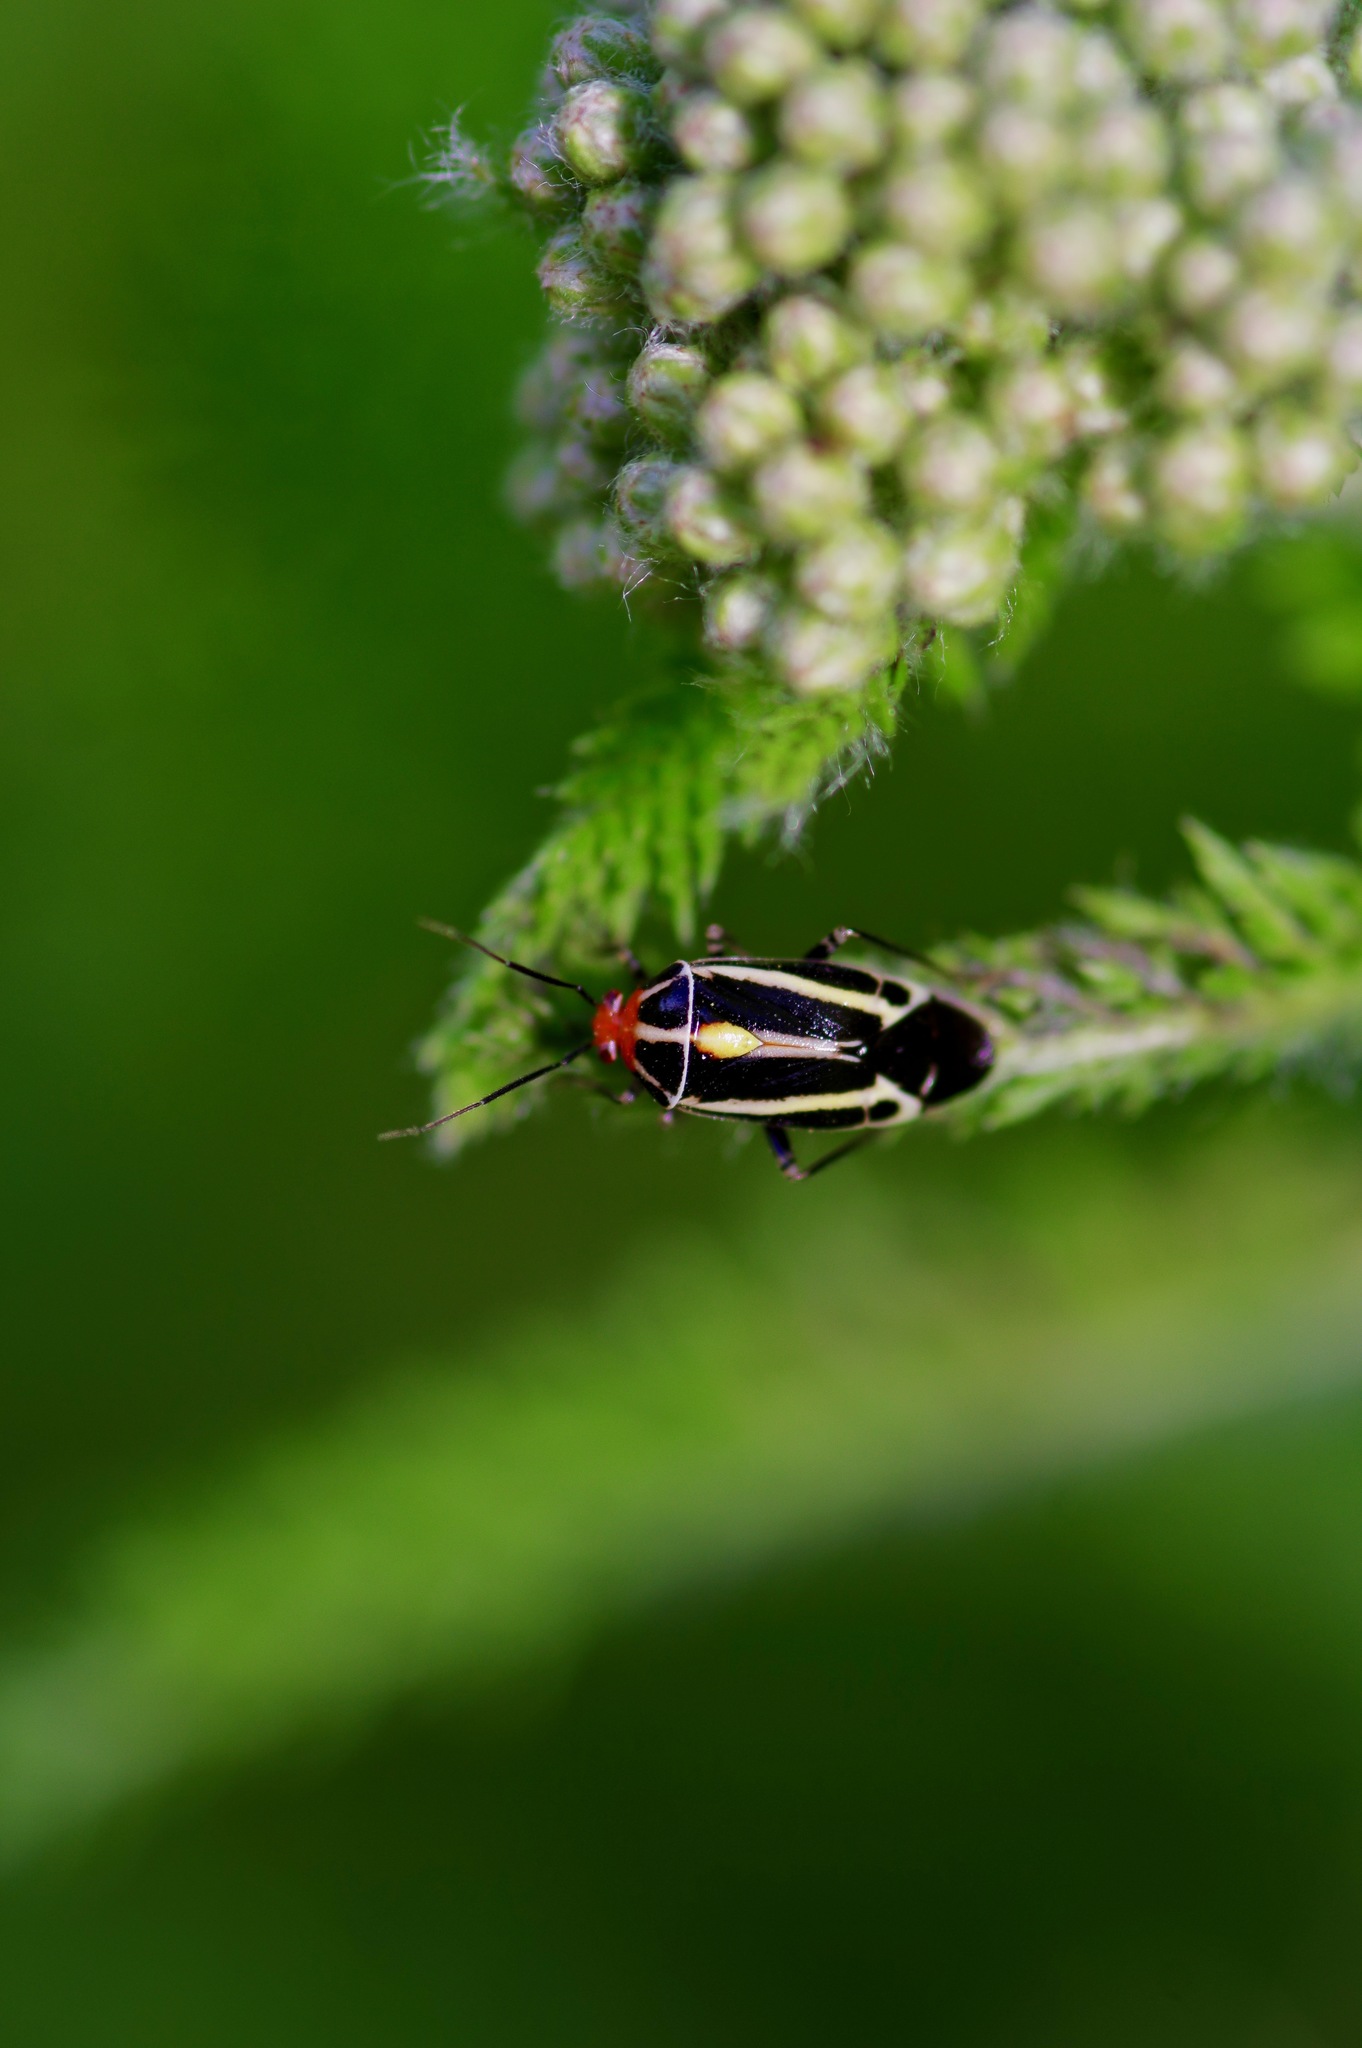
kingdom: Animalia
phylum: Arthropoda
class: Insecta
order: Hemiptera
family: Miridae
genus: Poecilocapsus
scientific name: Poecilocapsus lineatus
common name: Four-lined plant bug
